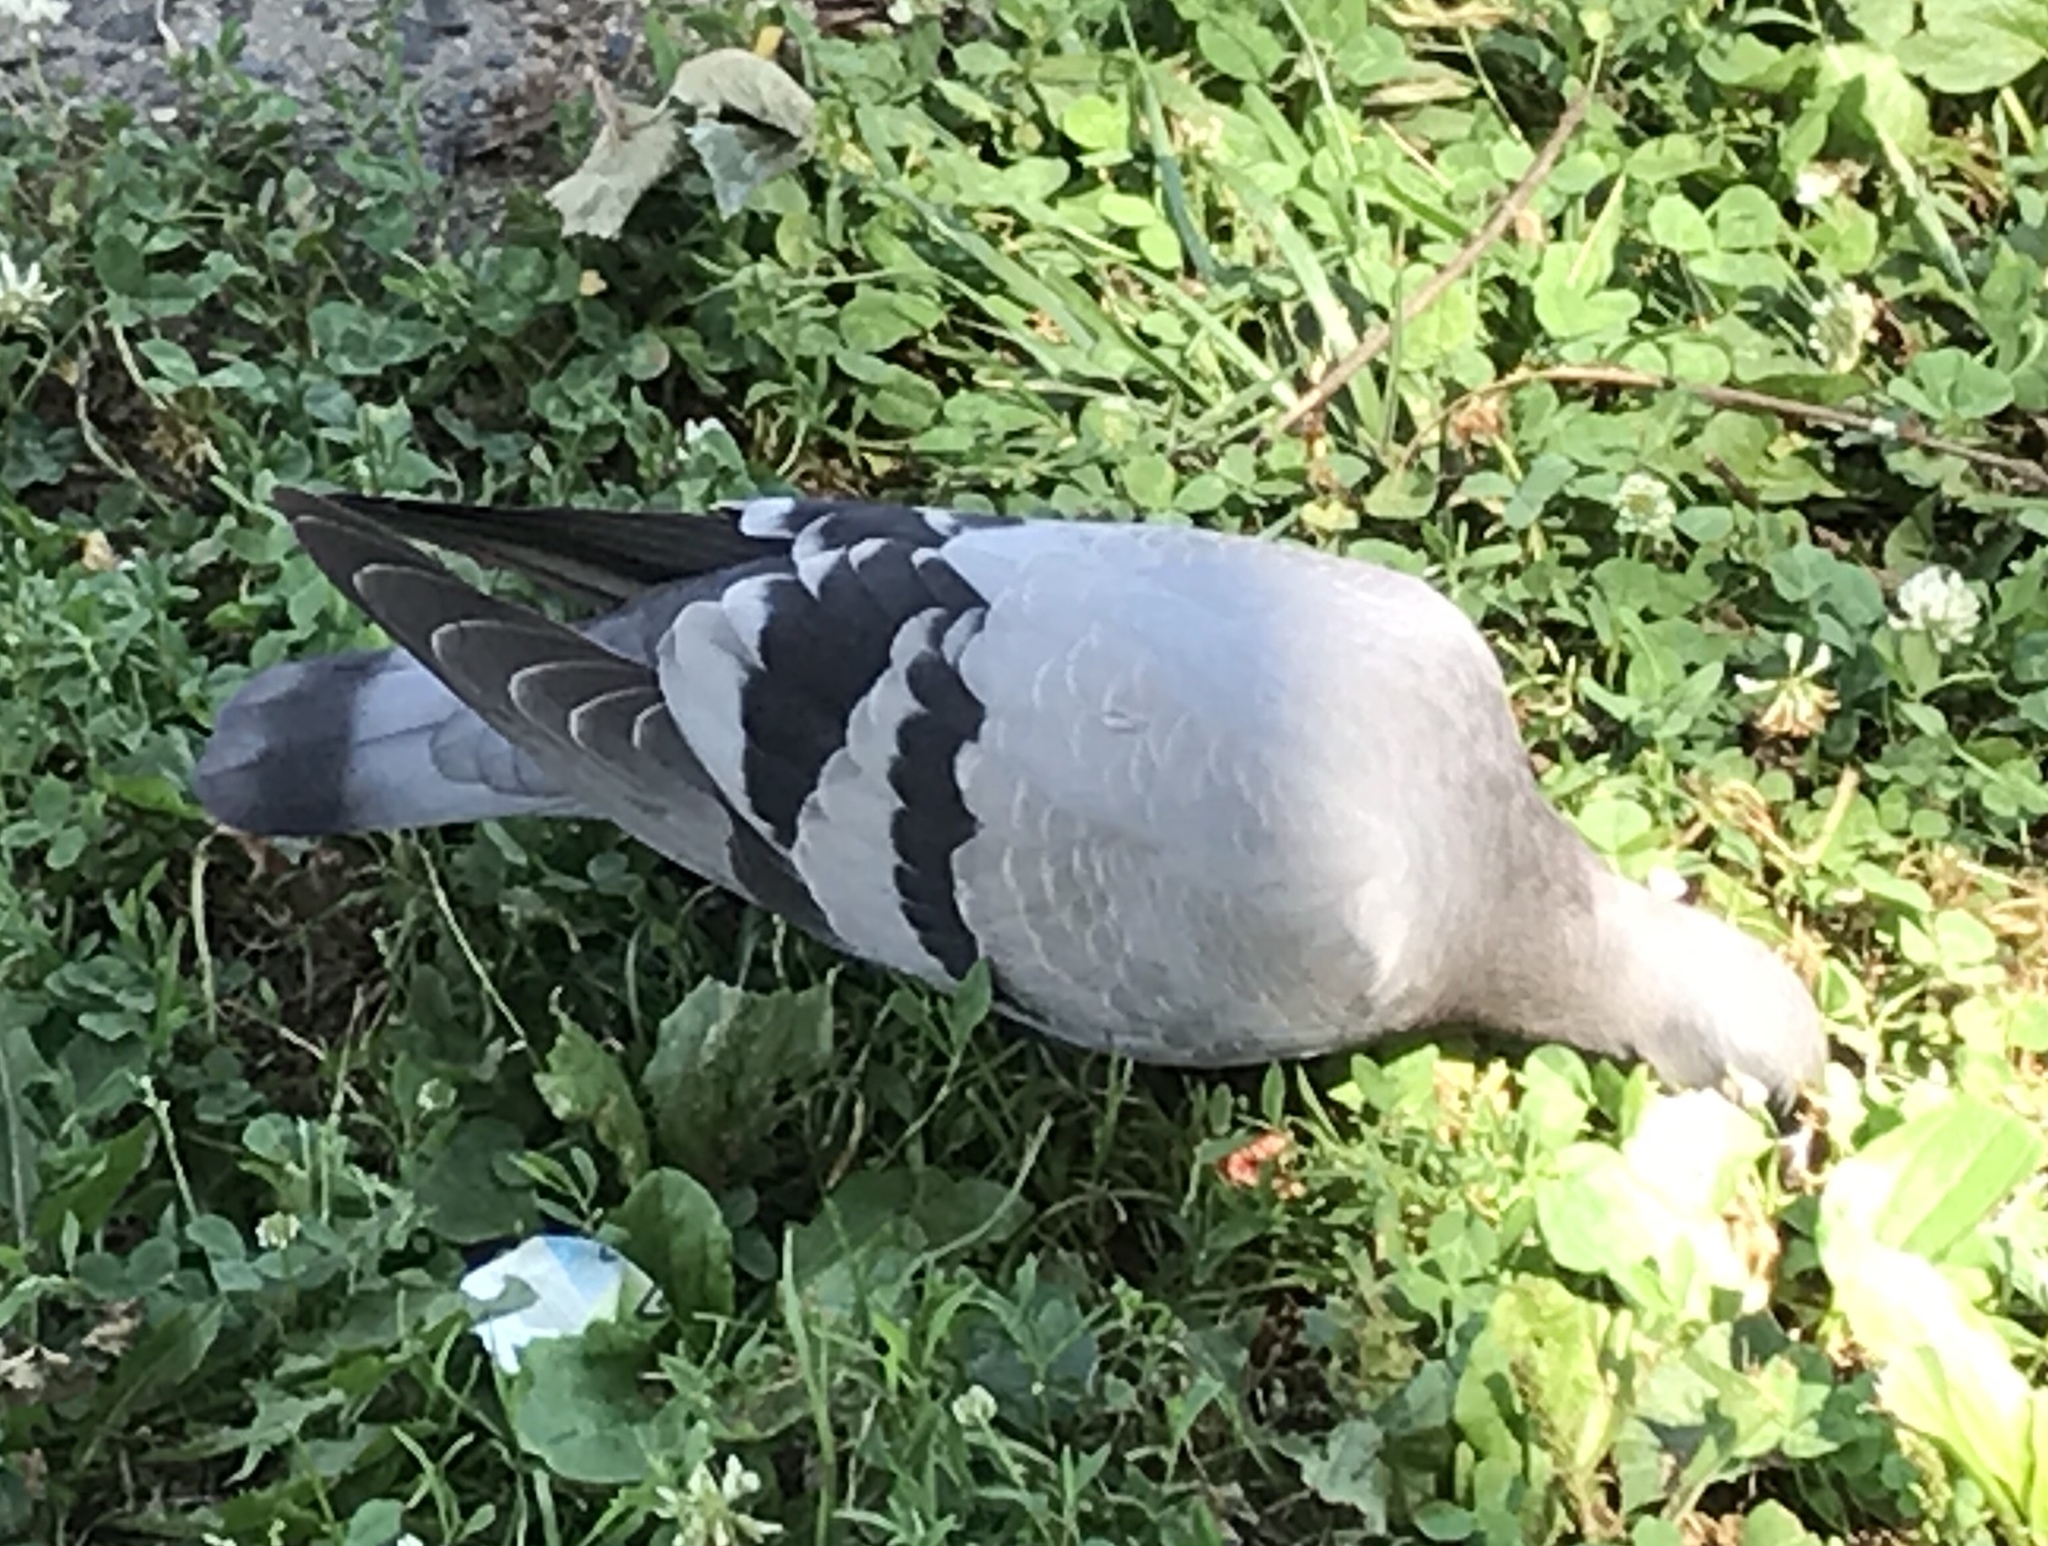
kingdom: Animalia
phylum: Chordata
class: Aves
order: Columbiformes
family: Columbidae
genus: Columba
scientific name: Columba livia
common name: Rock pigeon
